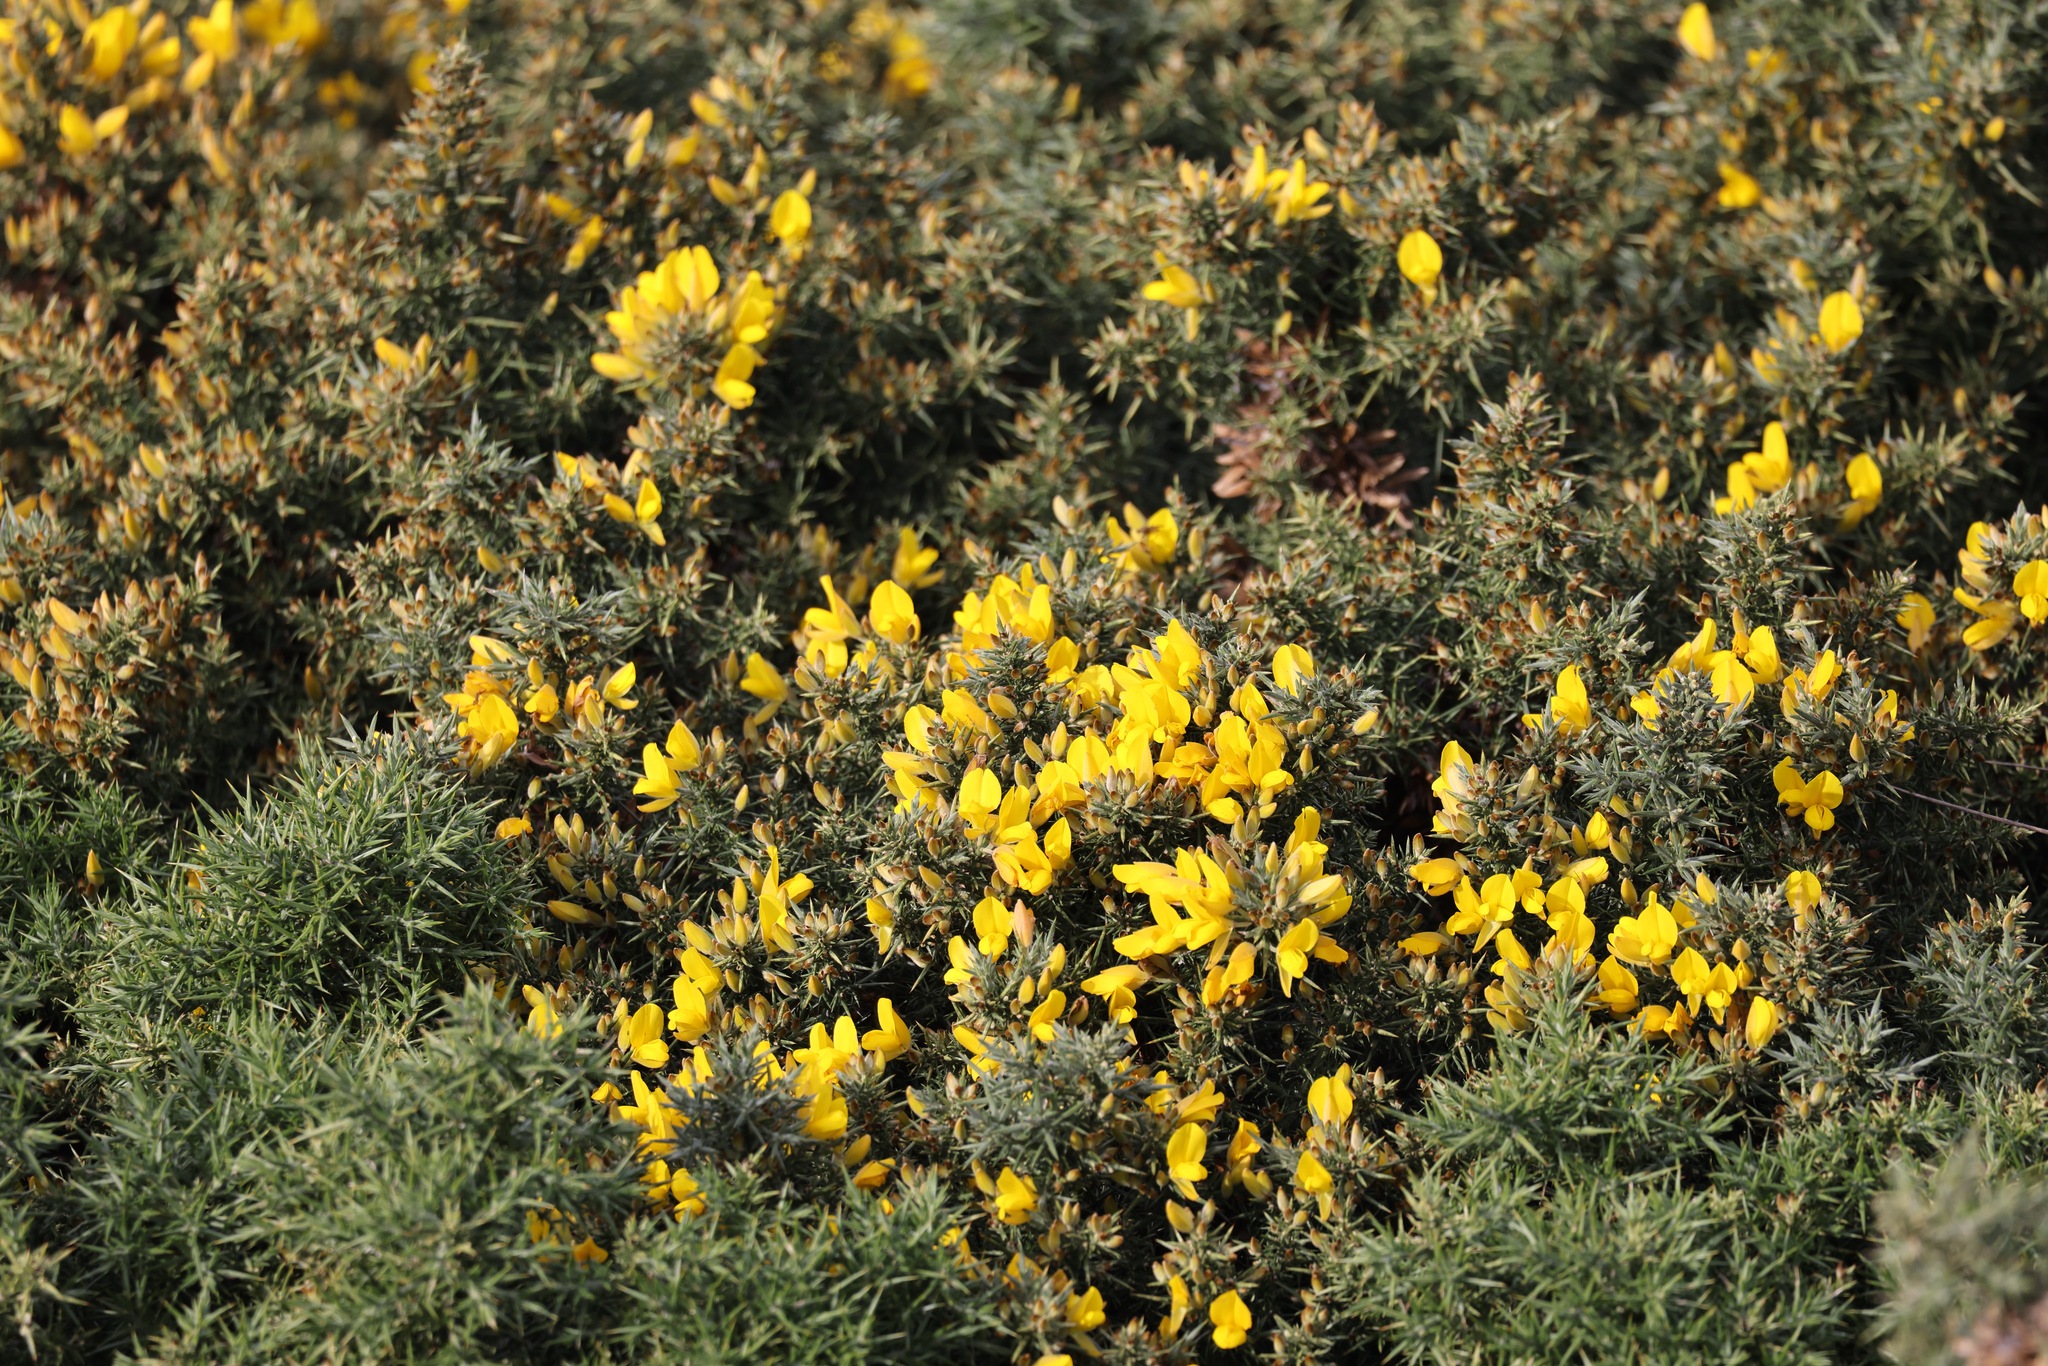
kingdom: Plantae
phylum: Tracheophyta
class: Magnoliopsida
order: Fabales
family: Fabaceae
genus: Ulex
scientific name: Ulex europaeus
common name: Common gorse
